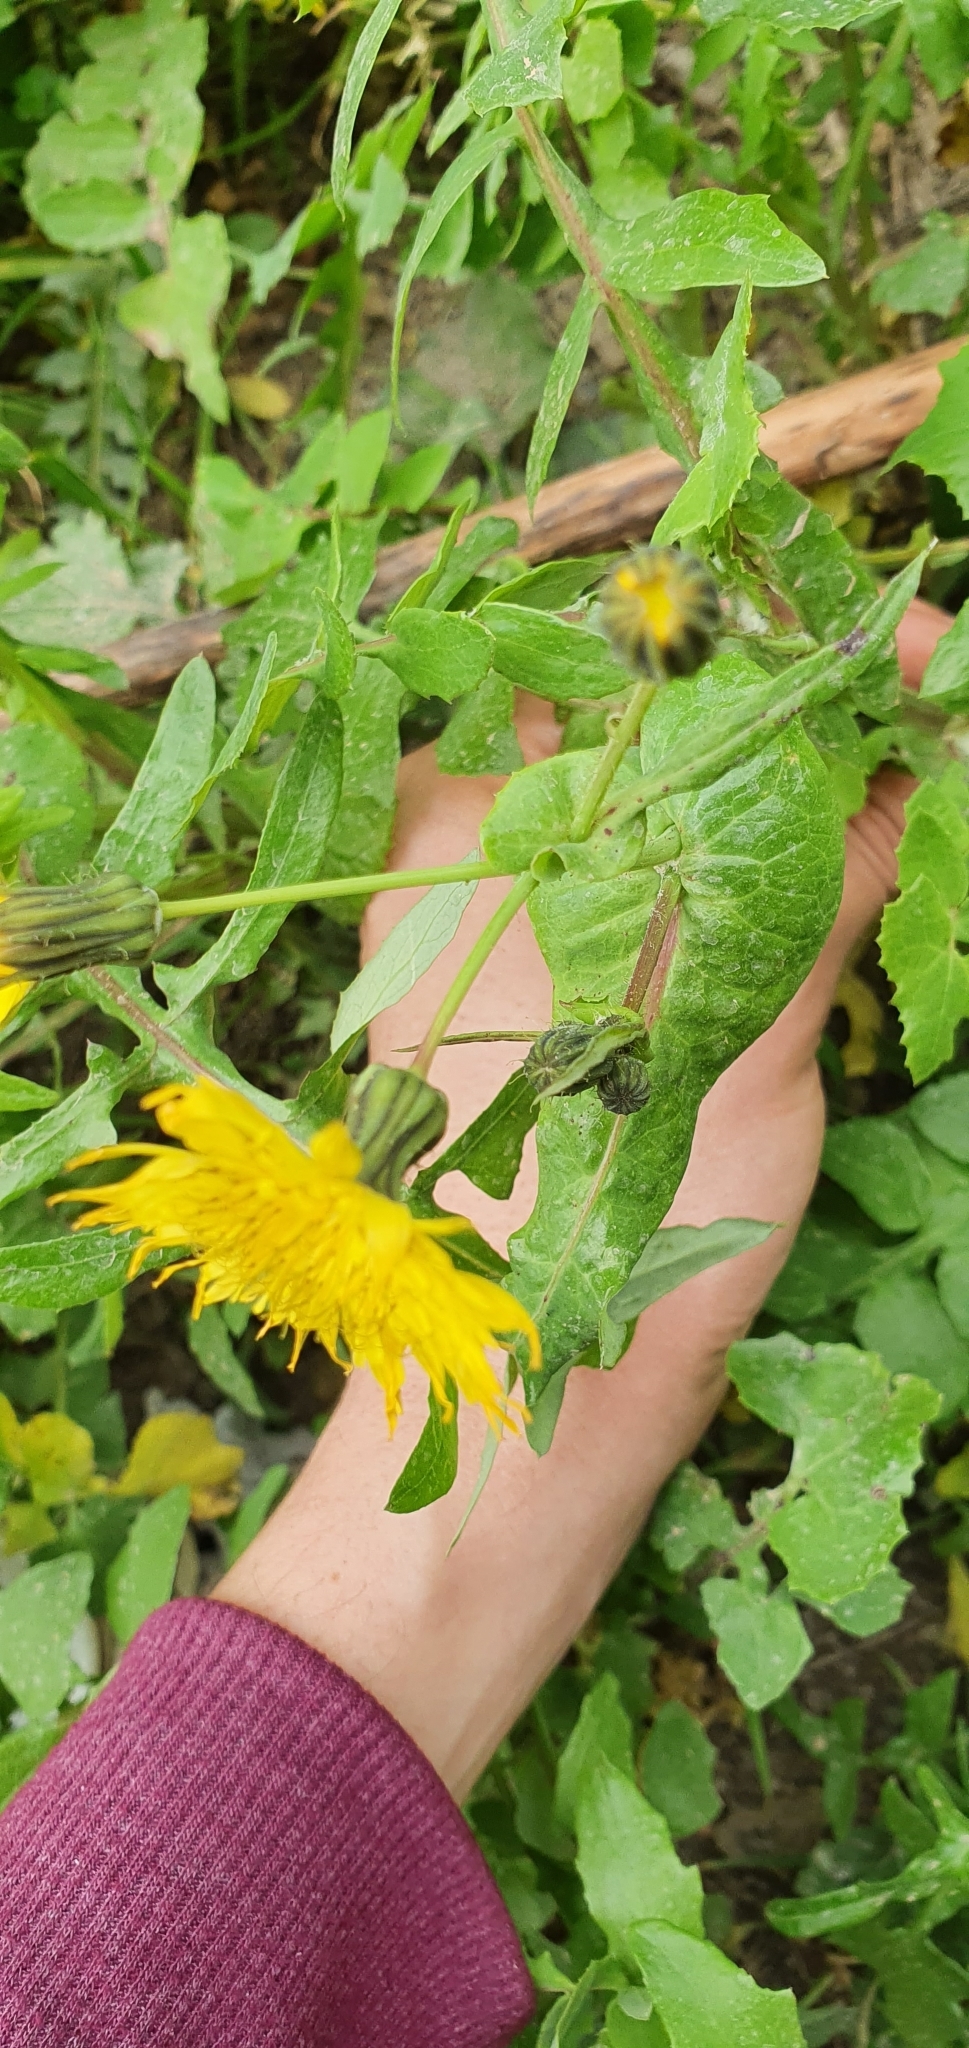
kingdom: Plantae
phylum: Tracheophyta
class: Magnoliopsida
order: Asterales
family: Asteraceae
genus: Sonchus
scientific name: Sonchus tenerrimus
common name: Clammy sowthistle
